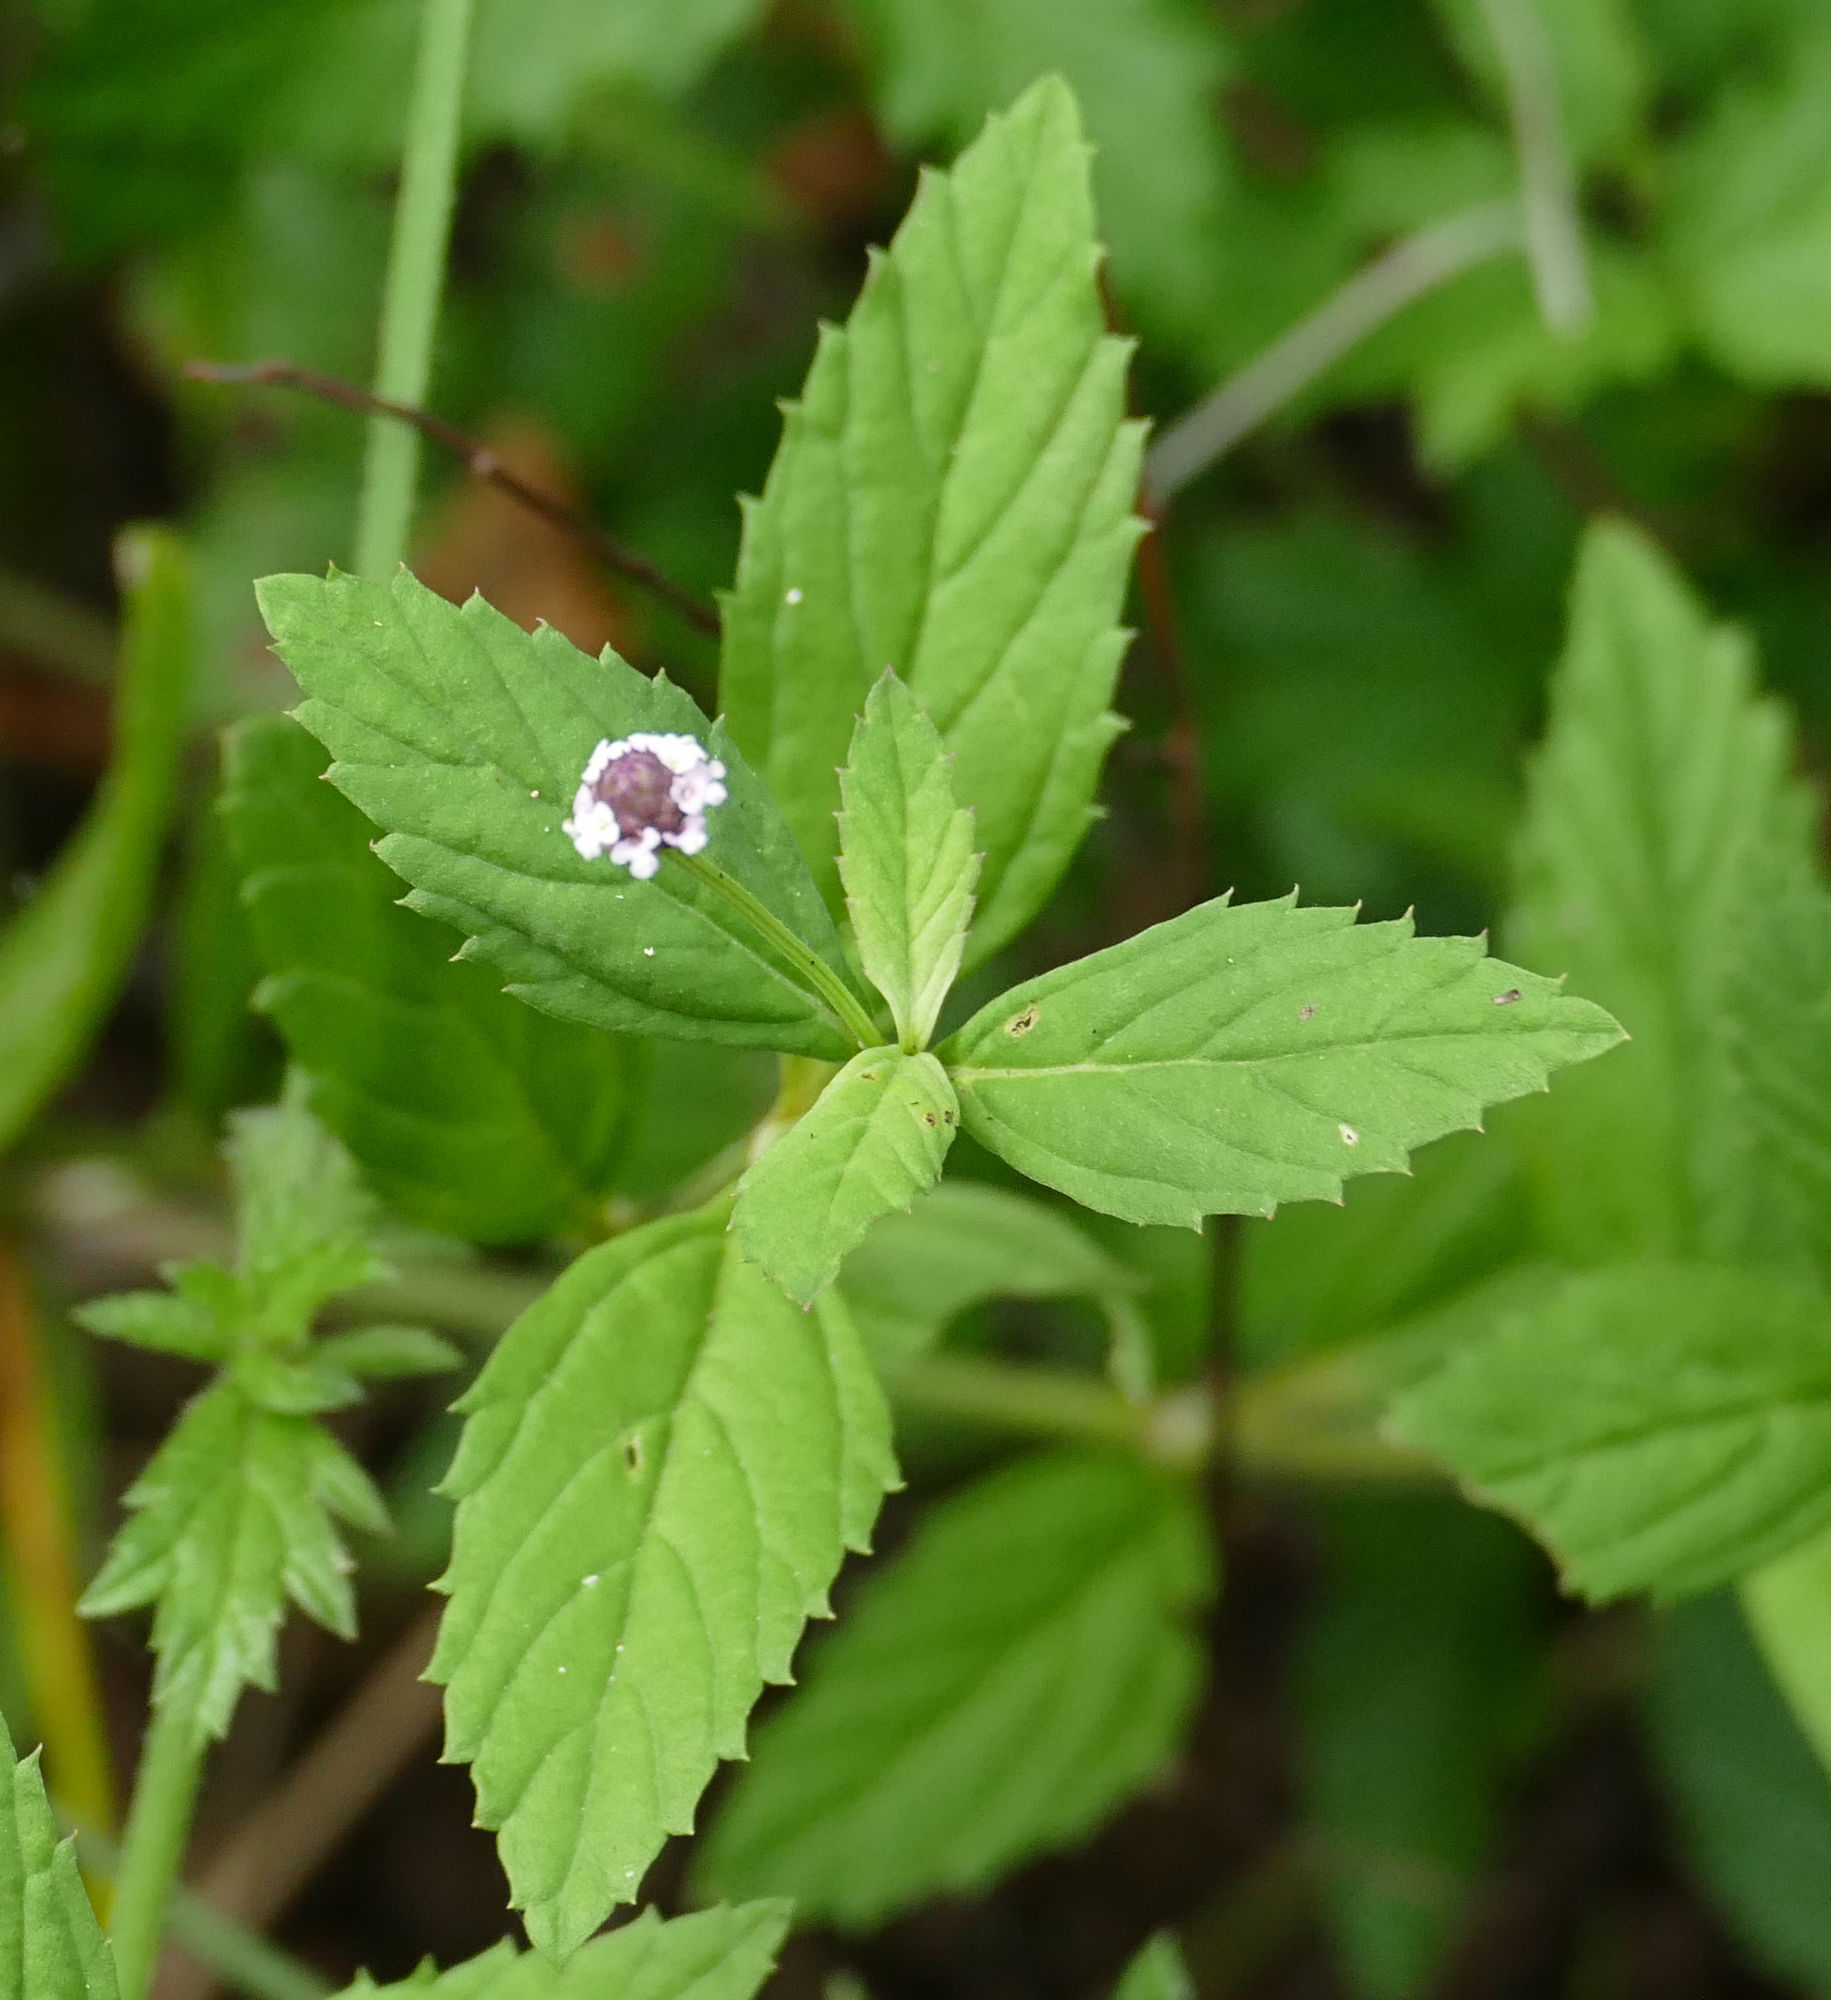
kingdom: Plantae
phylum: Tracheophyta
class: Magnoliopsida
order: Lamiales
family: Verbenaceae
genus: Phyla
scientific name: Phyla lanceolata
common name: Northern fogfruit
